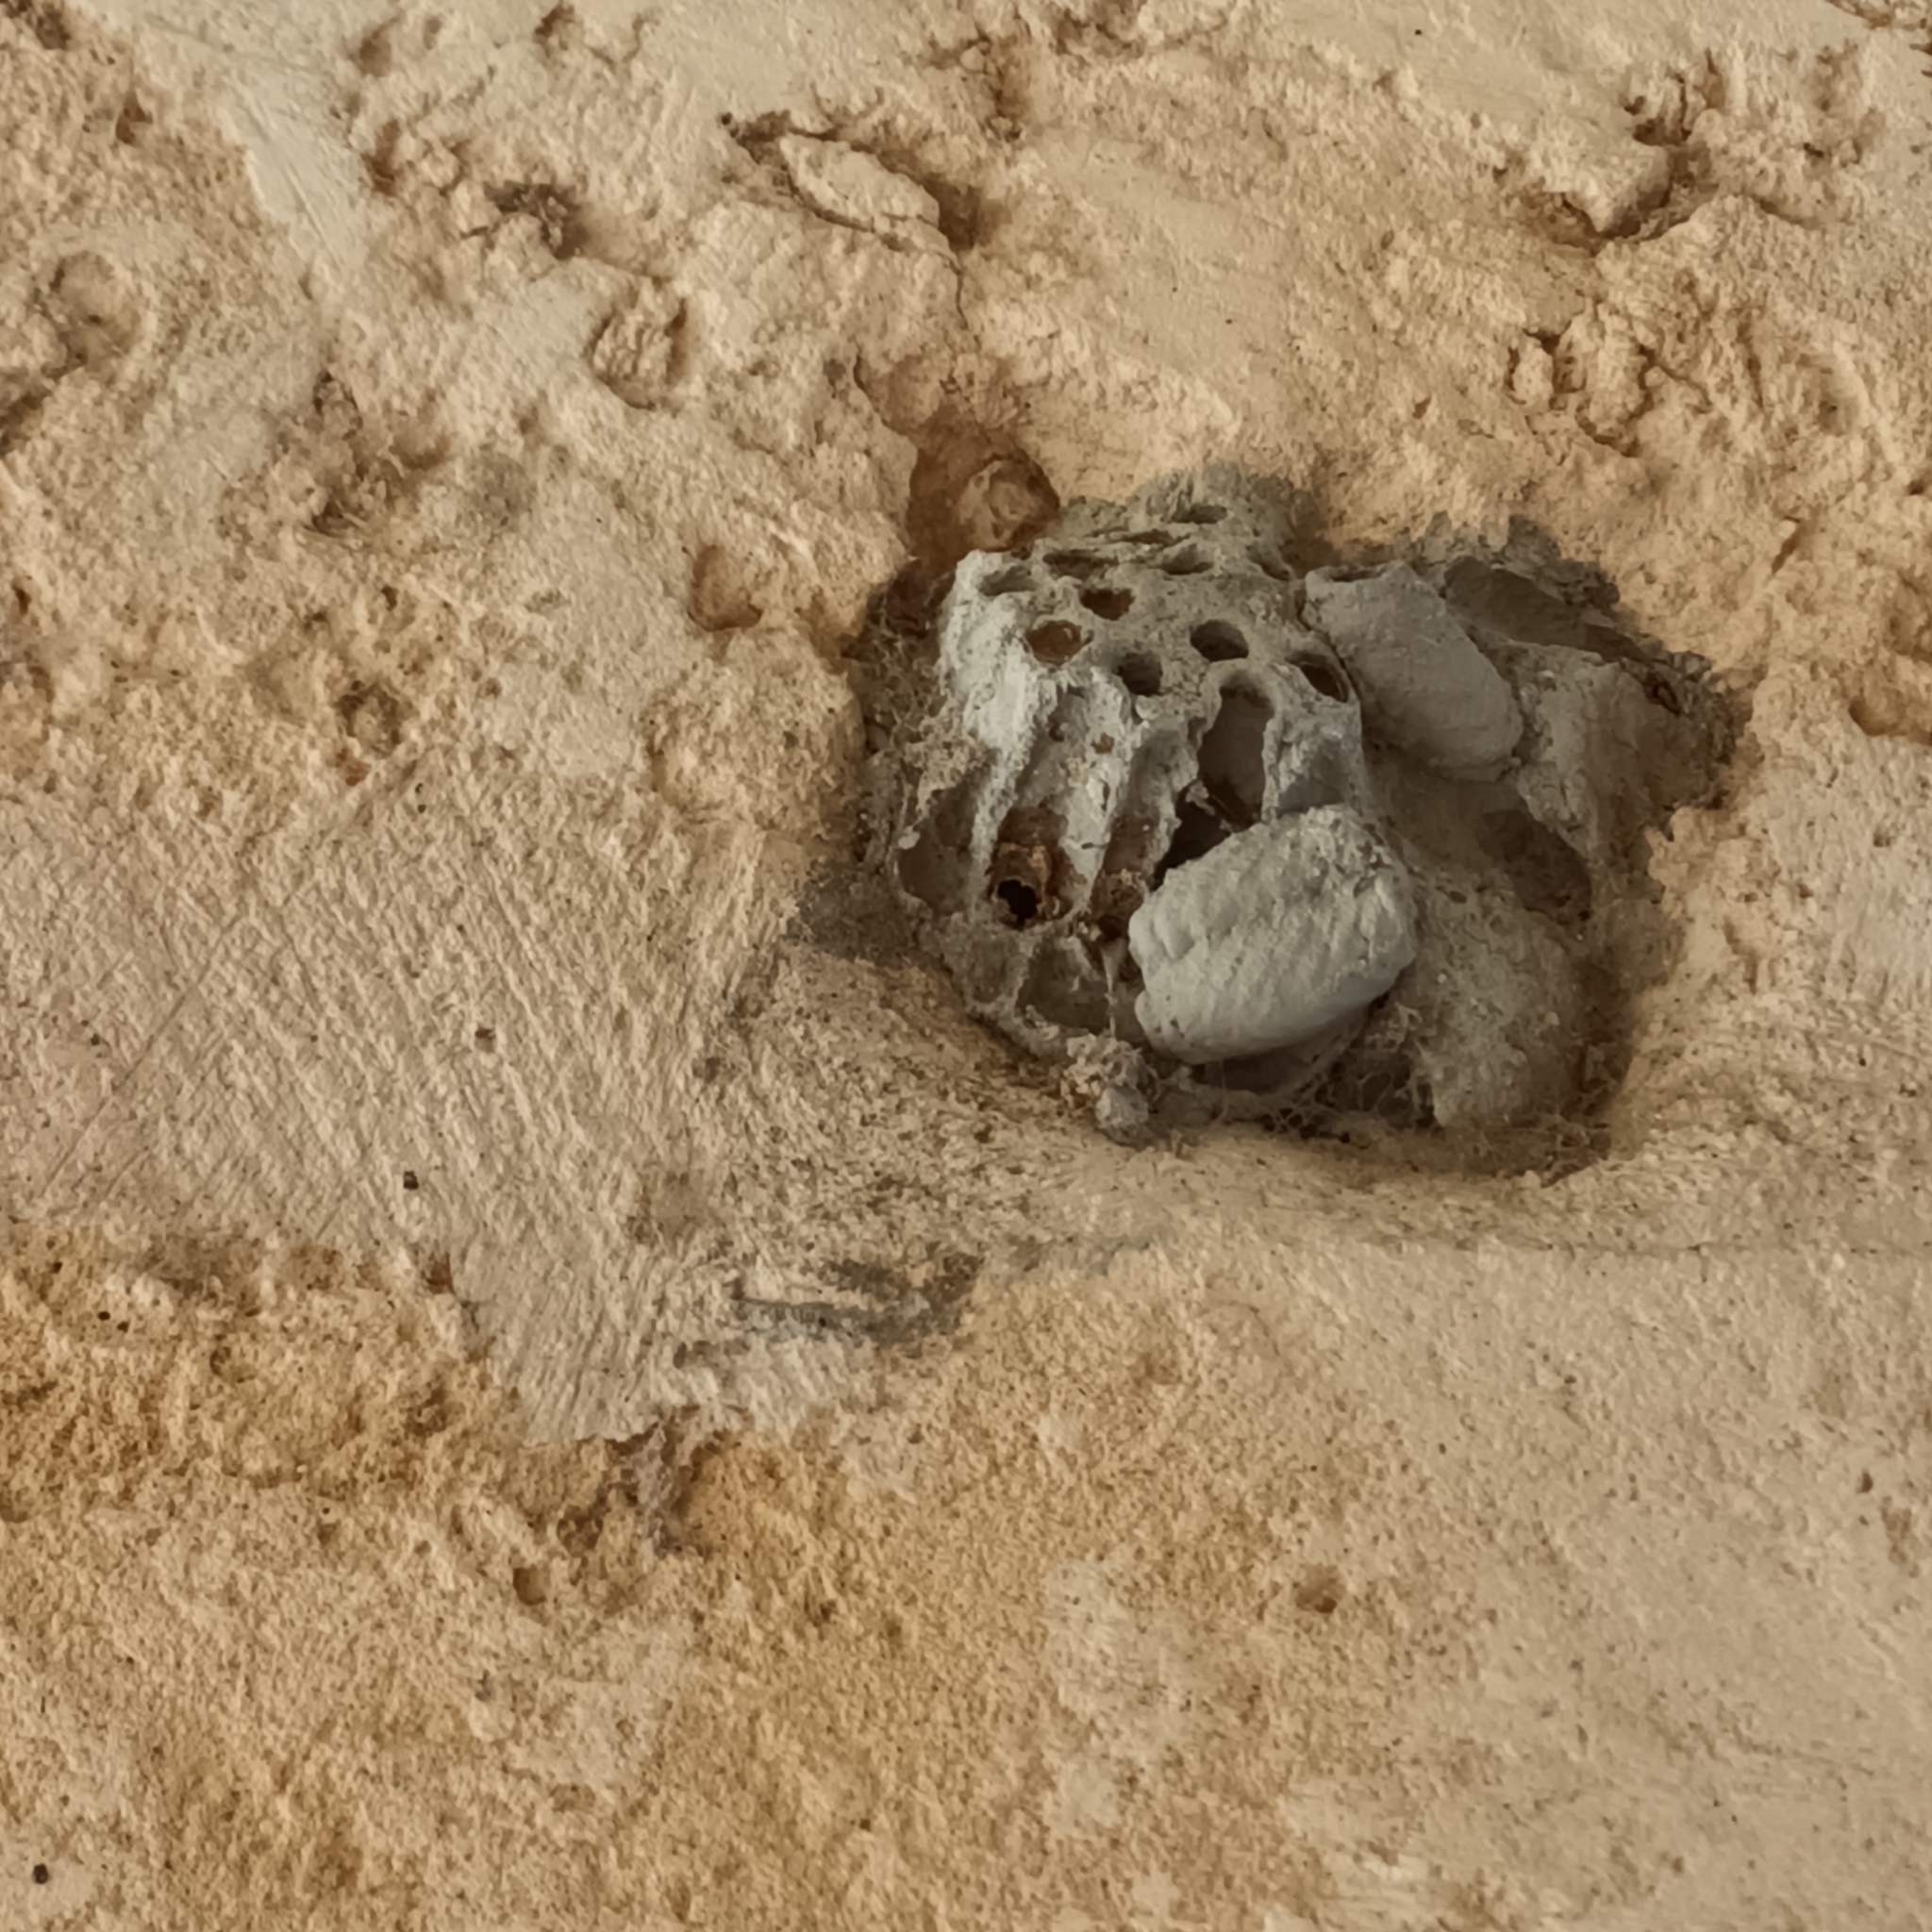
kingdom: Animalia
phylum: Arthropoda
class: Insecta
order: Hymenoptera
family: Sphecidae
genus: Sceliphron
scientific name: Sceliphron
